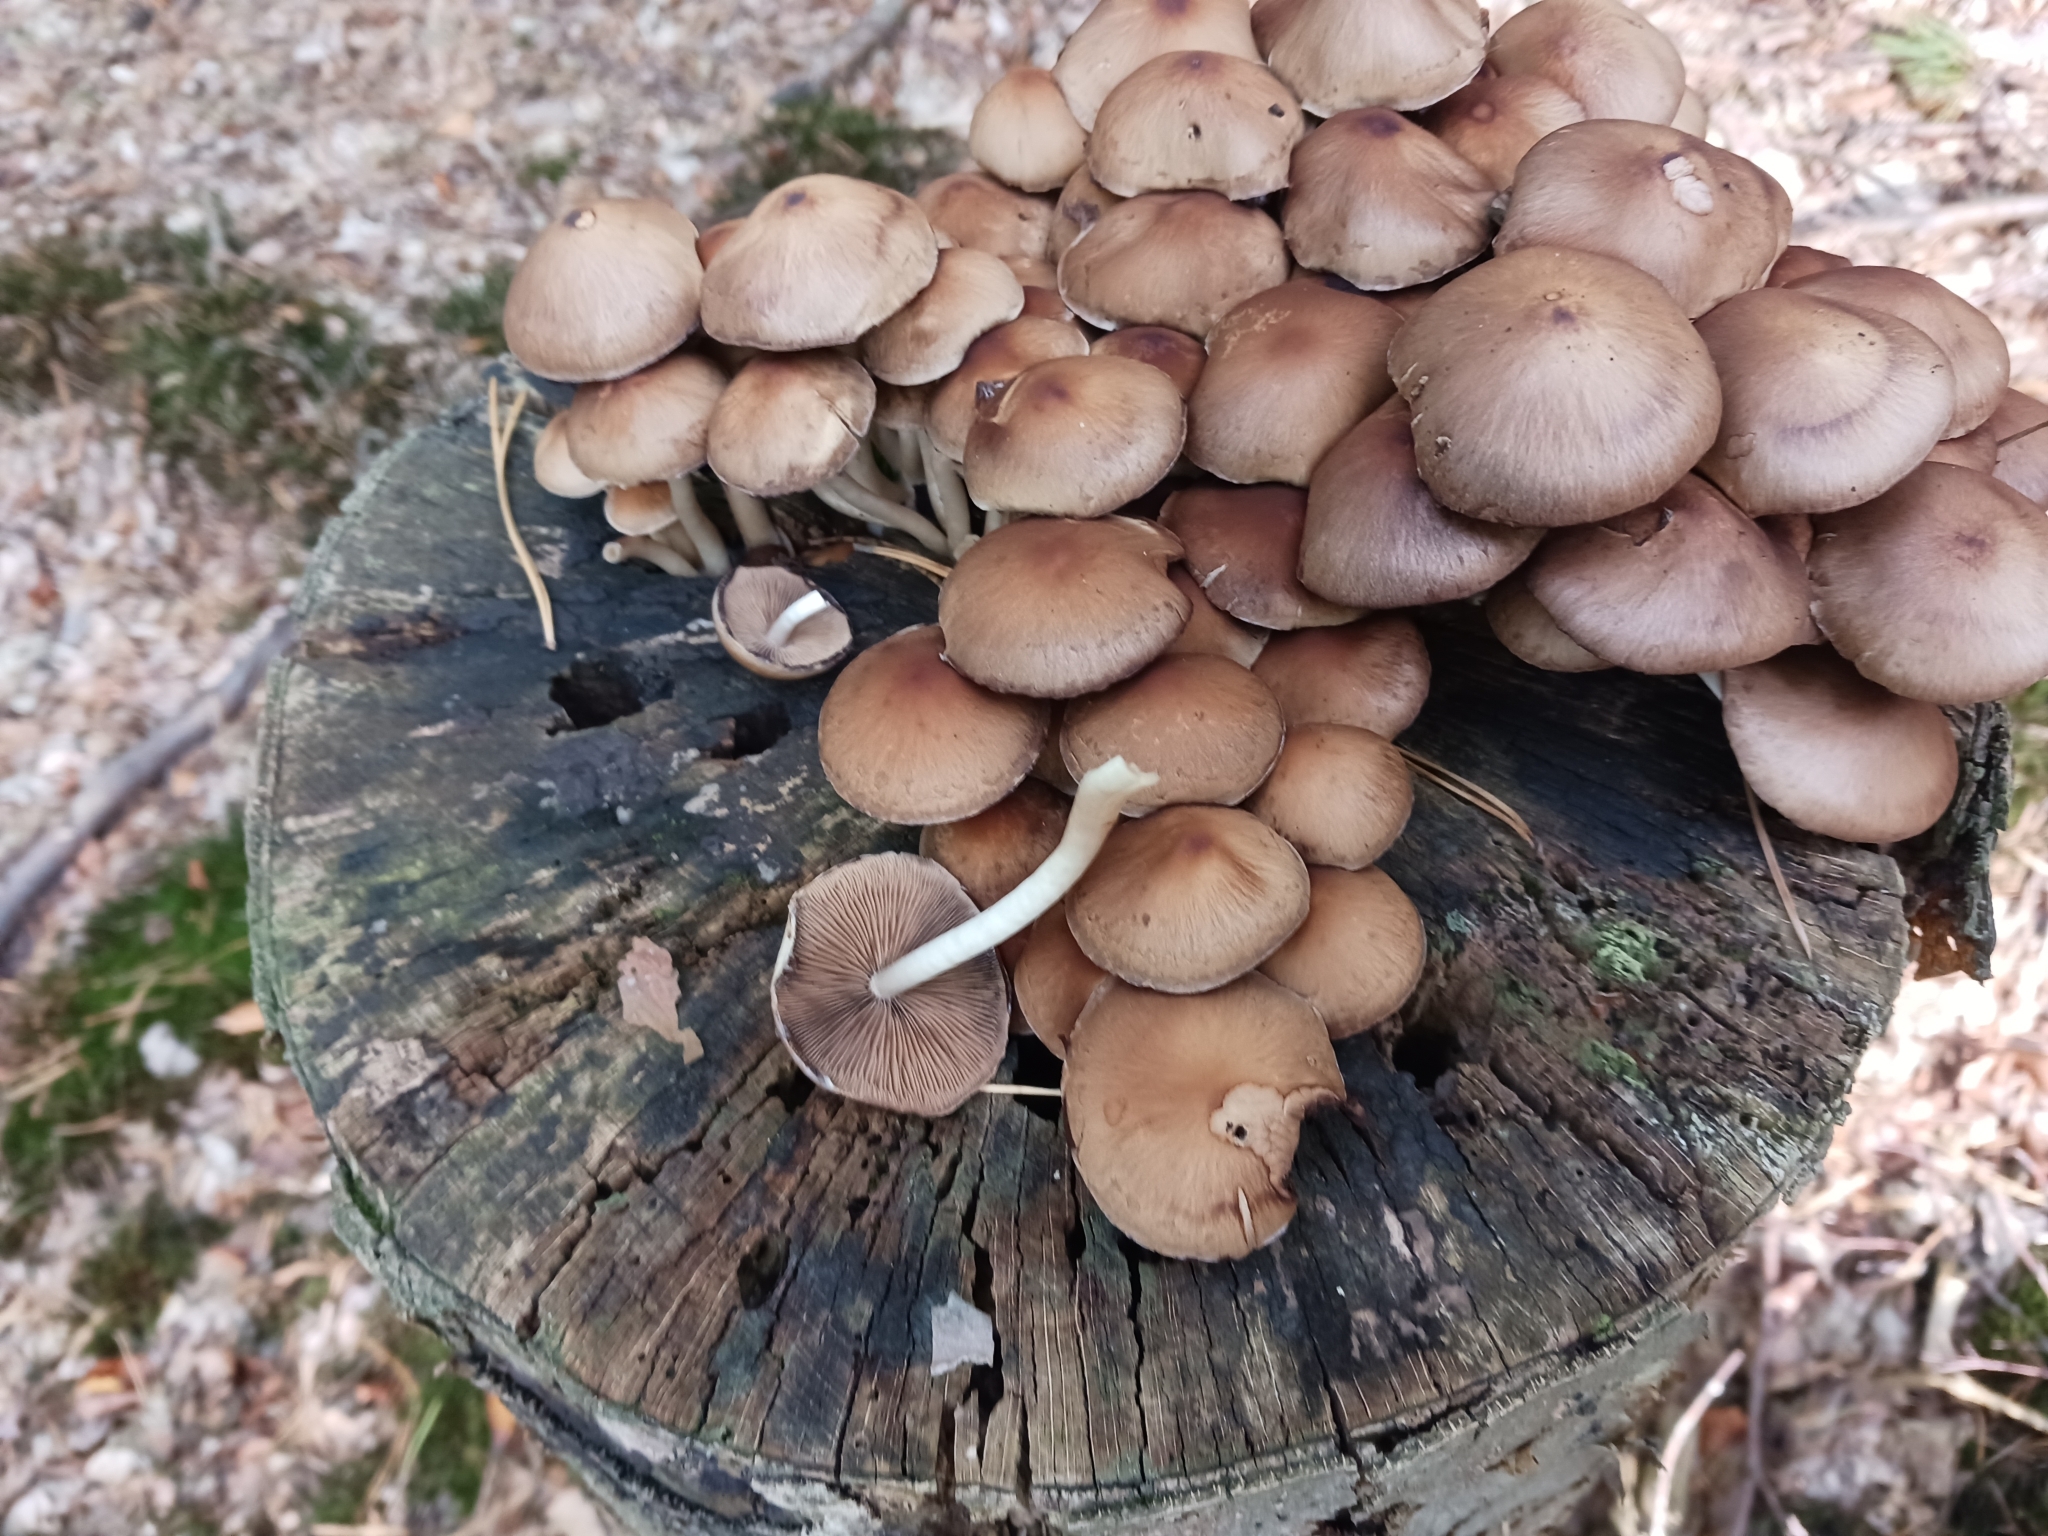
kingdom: Fungi
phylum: Basidiomycota
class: Agaricomycetes
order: Agaricales
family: Psathyrellaceae
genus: Psathyrella
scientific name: Psathyrella piluliformis
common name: Common stump brittlestem
